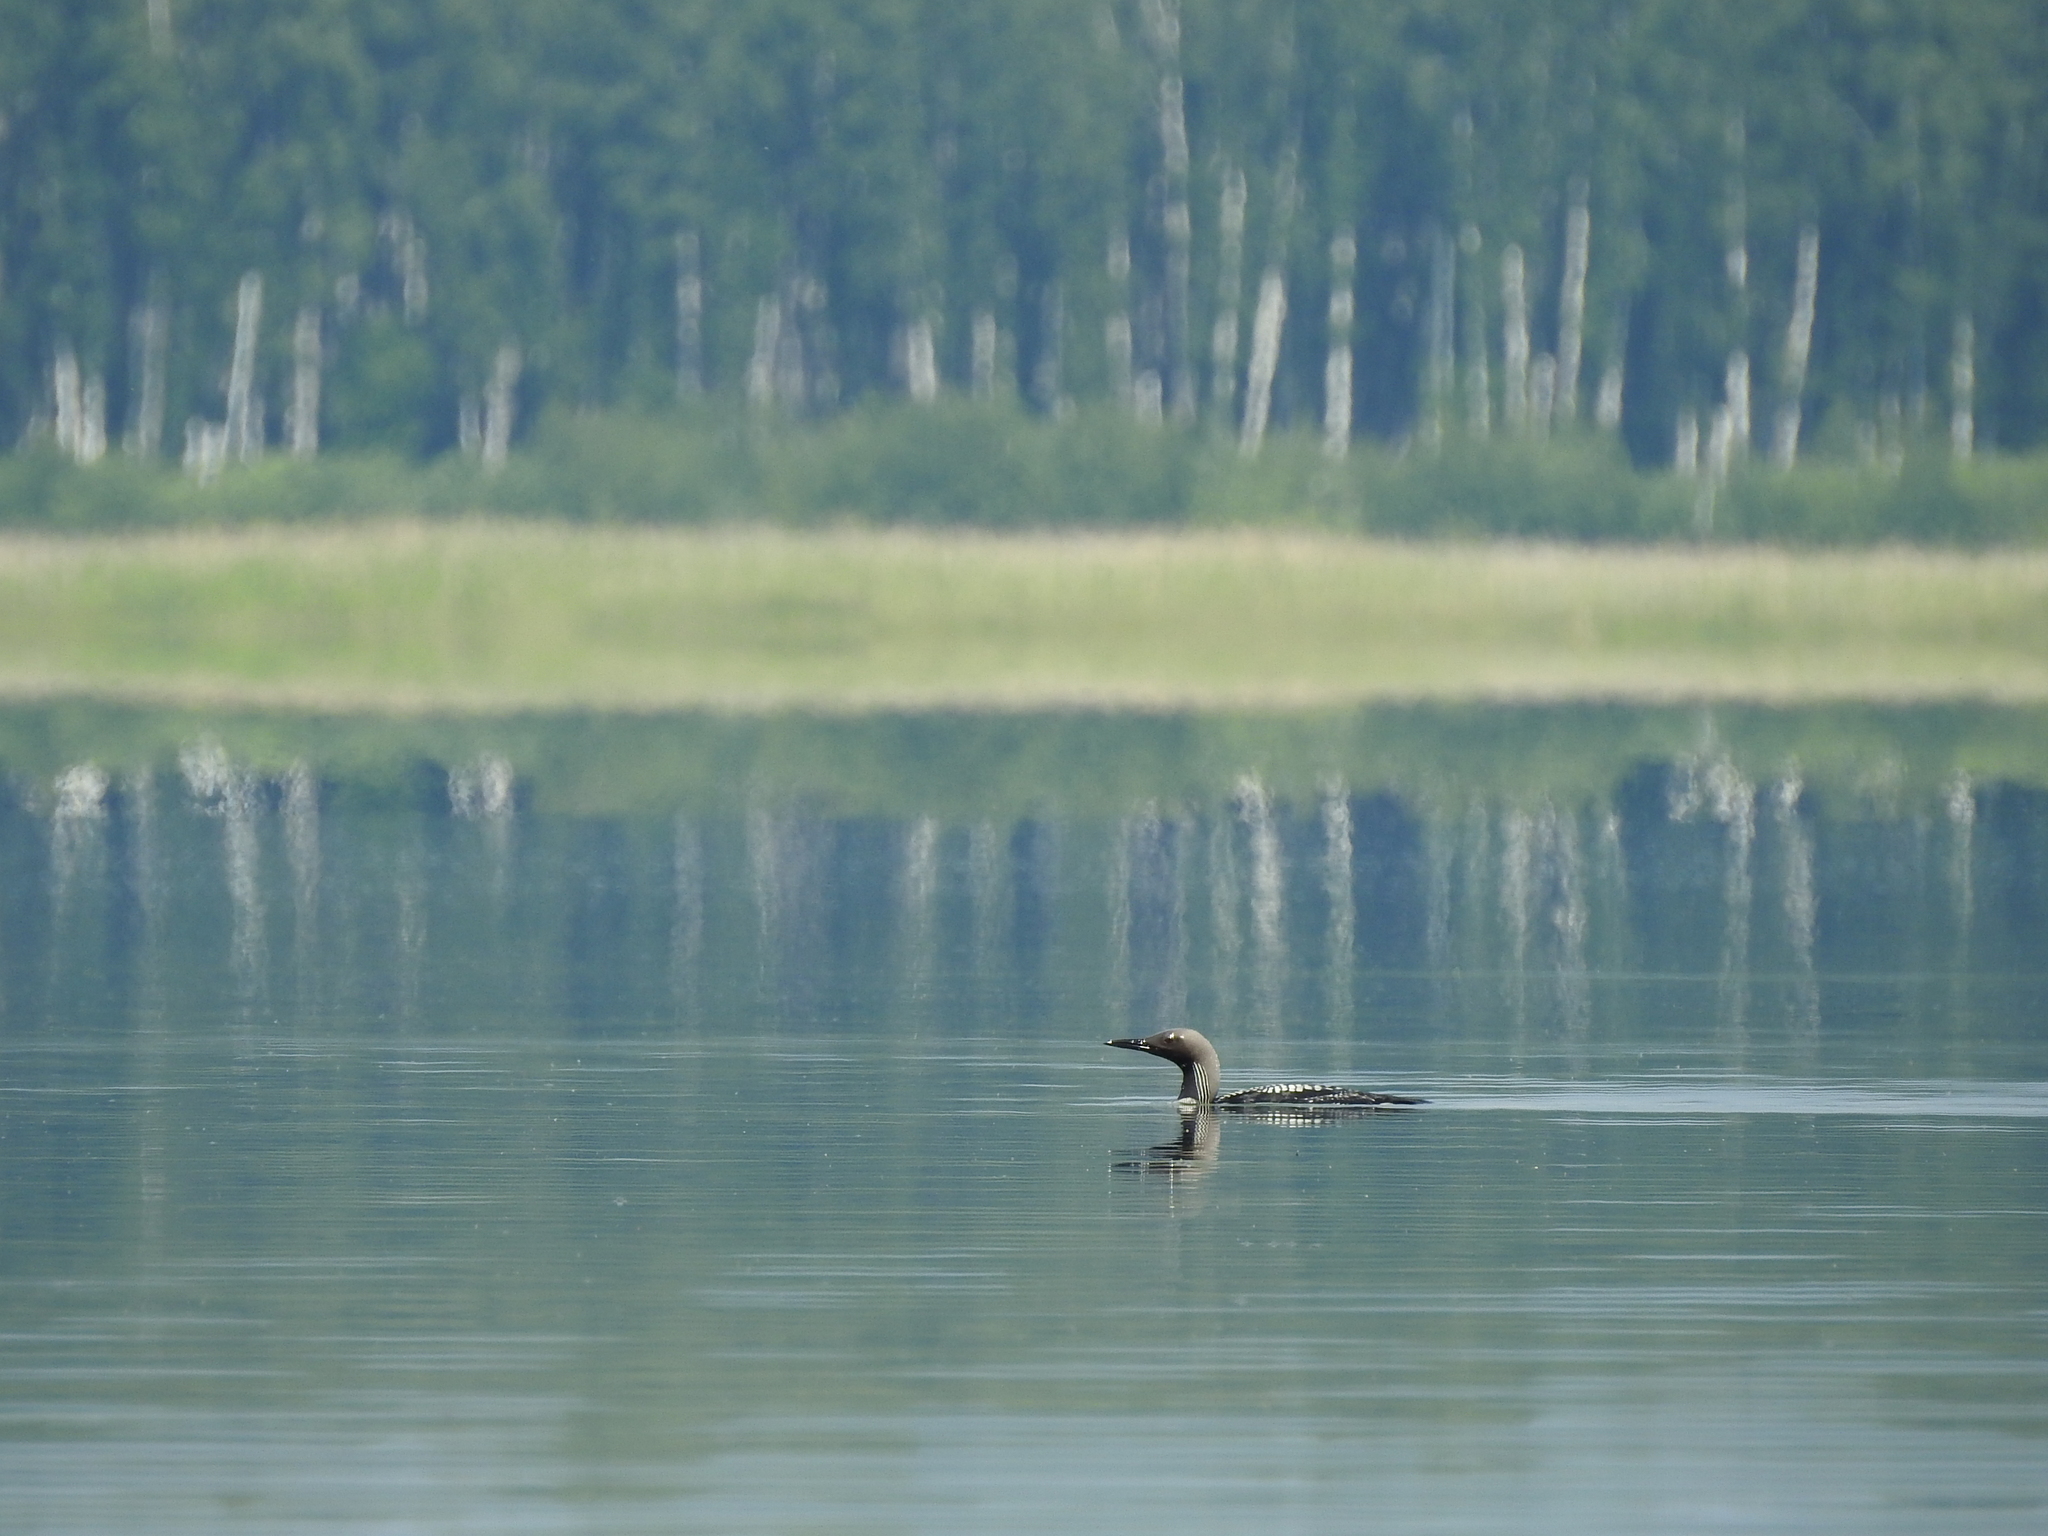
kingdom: Animalia
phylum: Chordata
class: Aves
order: Gaviiformes
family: Gaviidae
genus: Gavia
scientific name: Gavia arctica
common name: Black-throated loon
